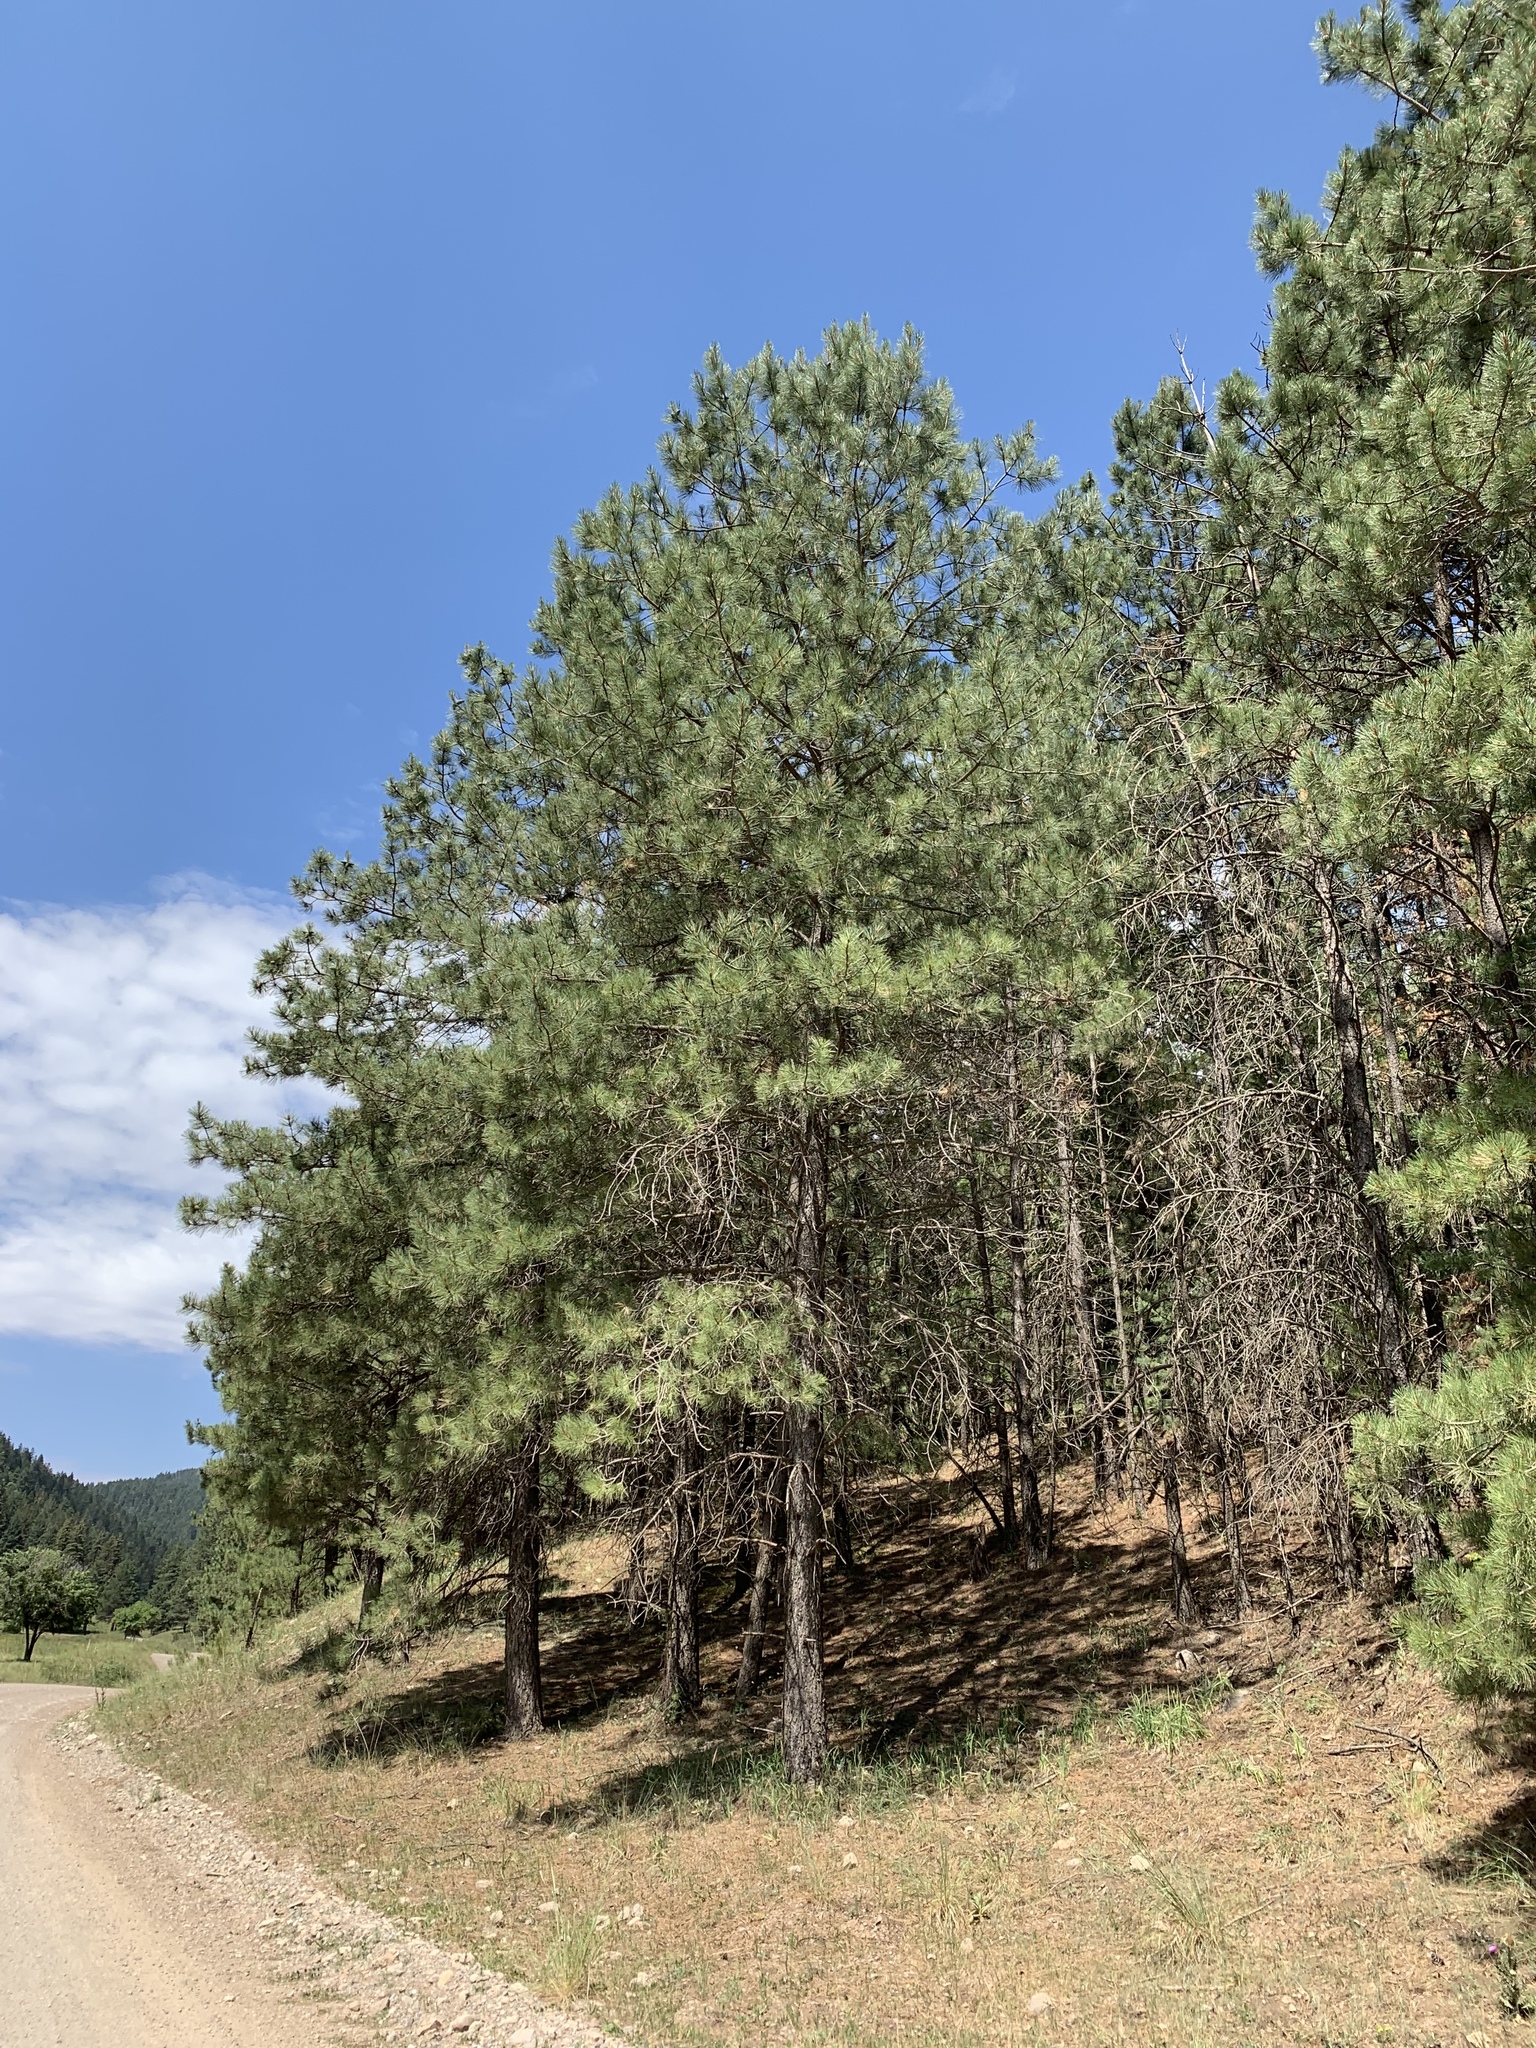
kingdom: Plantae
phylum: Tracheophyta
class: Pinopsida
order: Pinales
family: Pinaceae
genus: Pinus
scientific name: Pinus ponderosa
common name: Western yellow-pine
